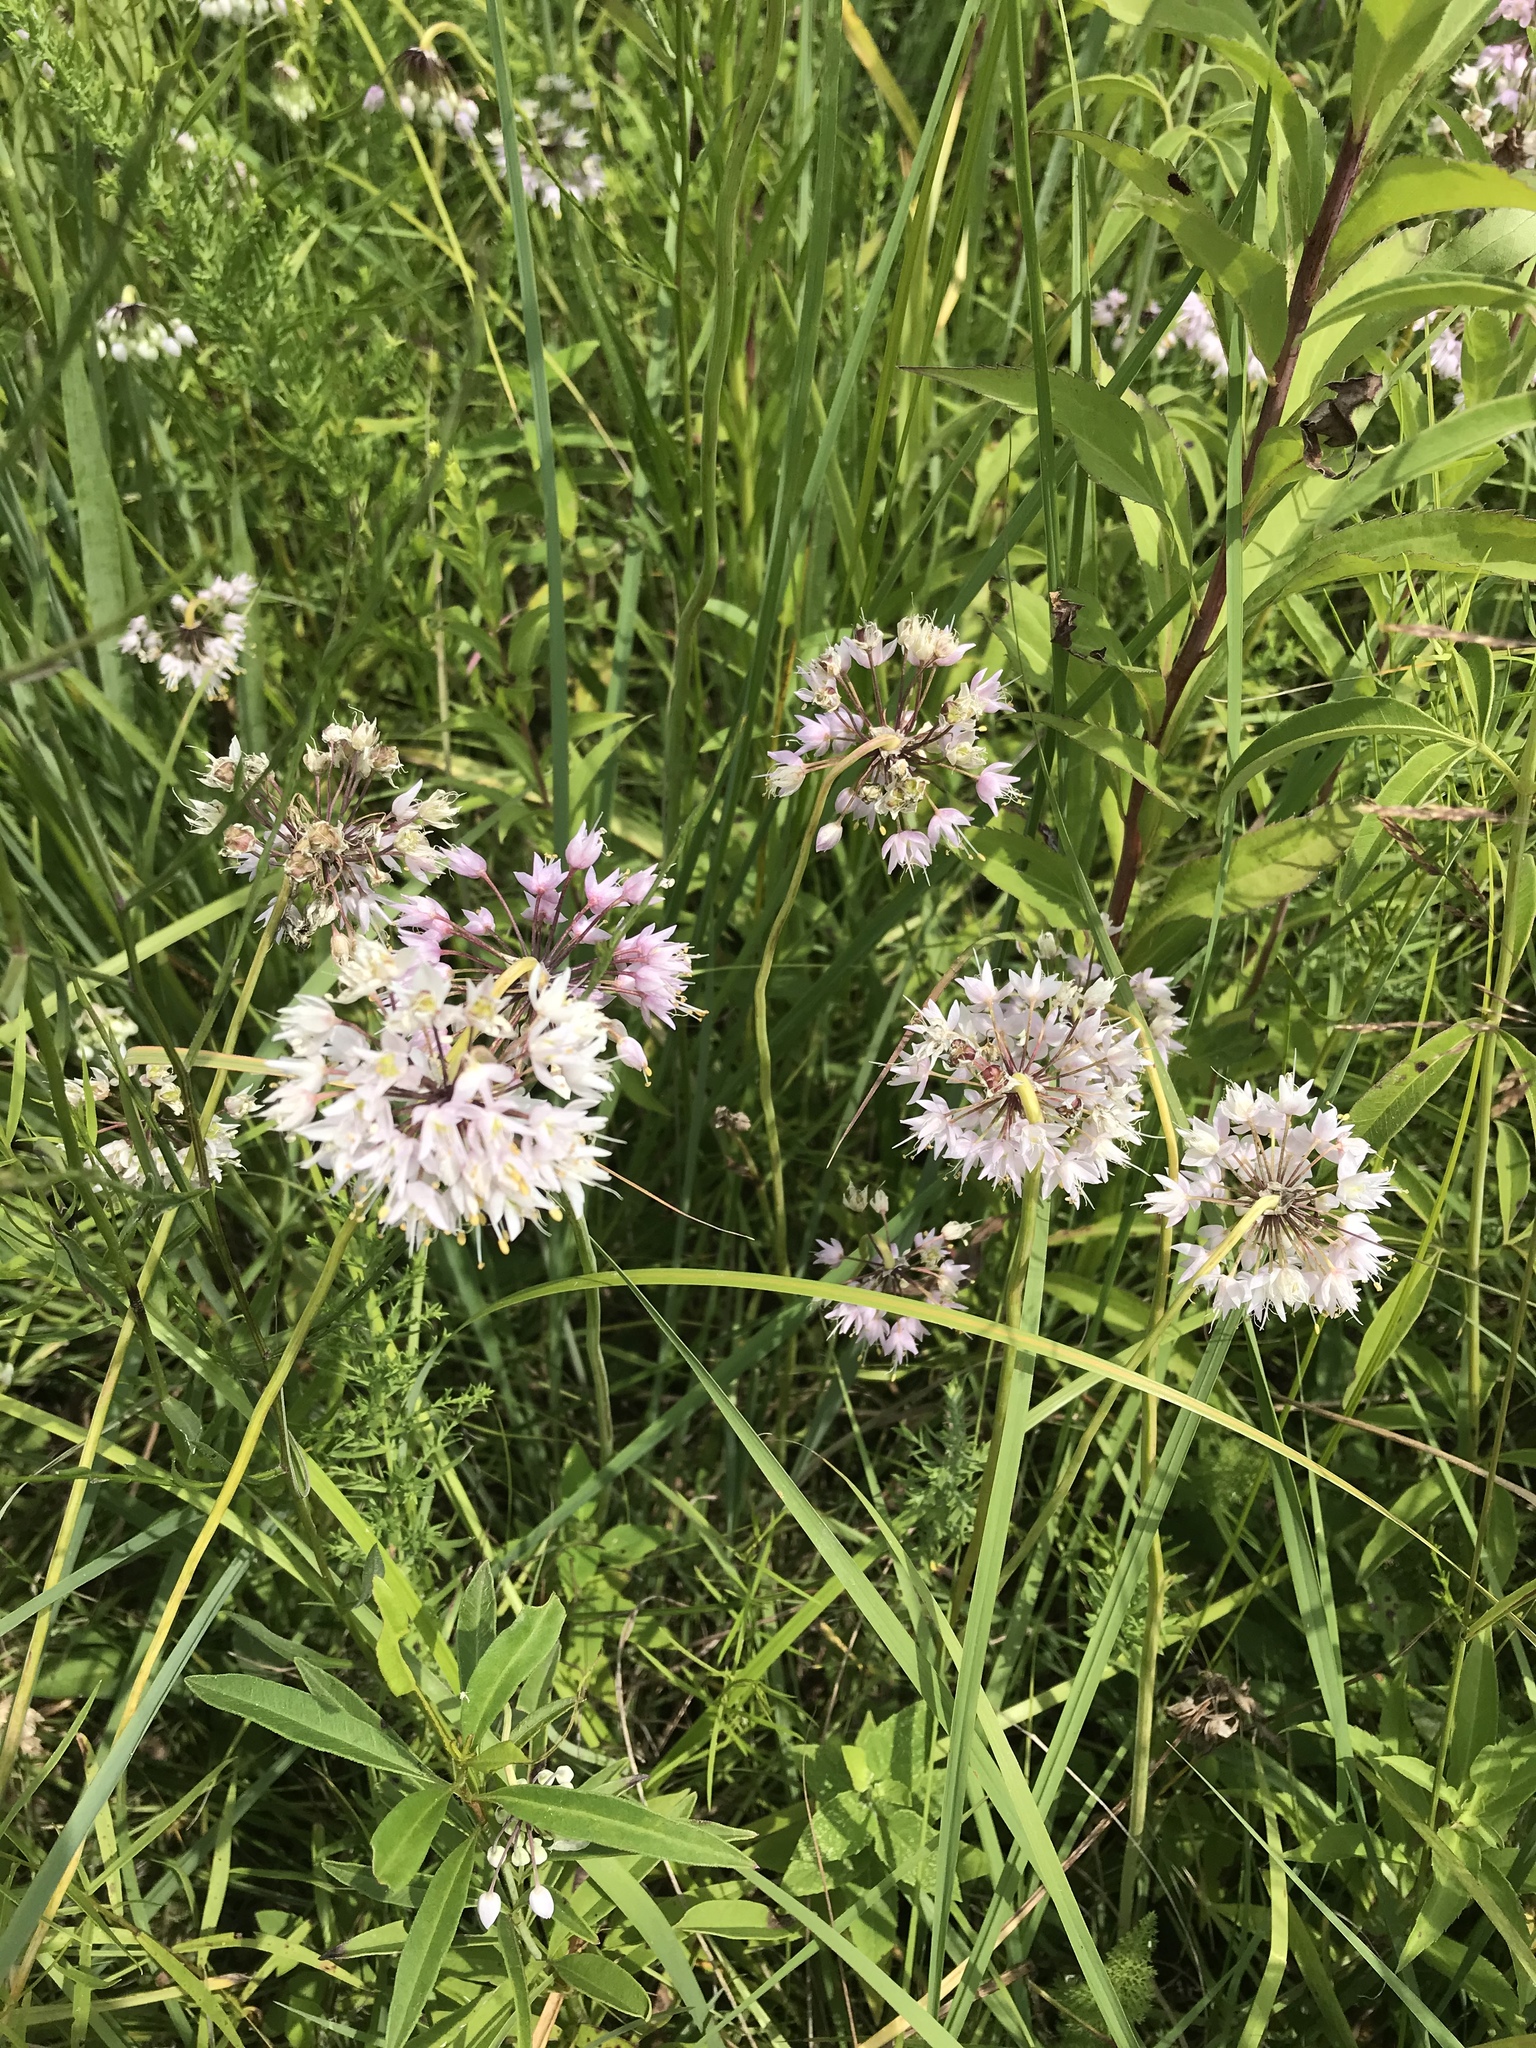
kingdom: Plantae
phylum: Tracheophyta
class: Liliopsida
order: Asparagales
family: Amaryllidaceae
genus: Allium
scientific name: Allium cernuum
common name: Nodding onion
